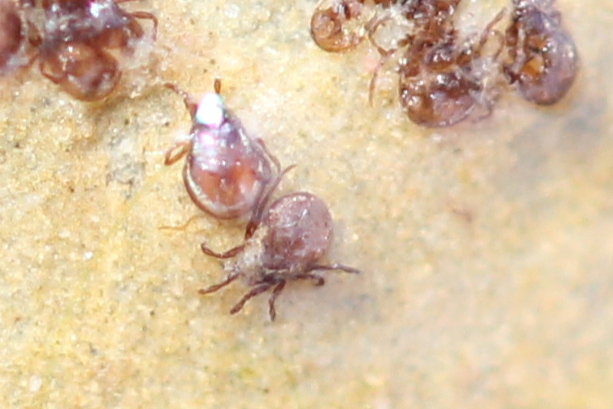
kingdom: Animalia
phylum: Arthropoda
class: Arachnida
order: Sarcoptiformes
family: Hydrozetidae
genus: Hydrozetes
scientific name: Hydrozetes
